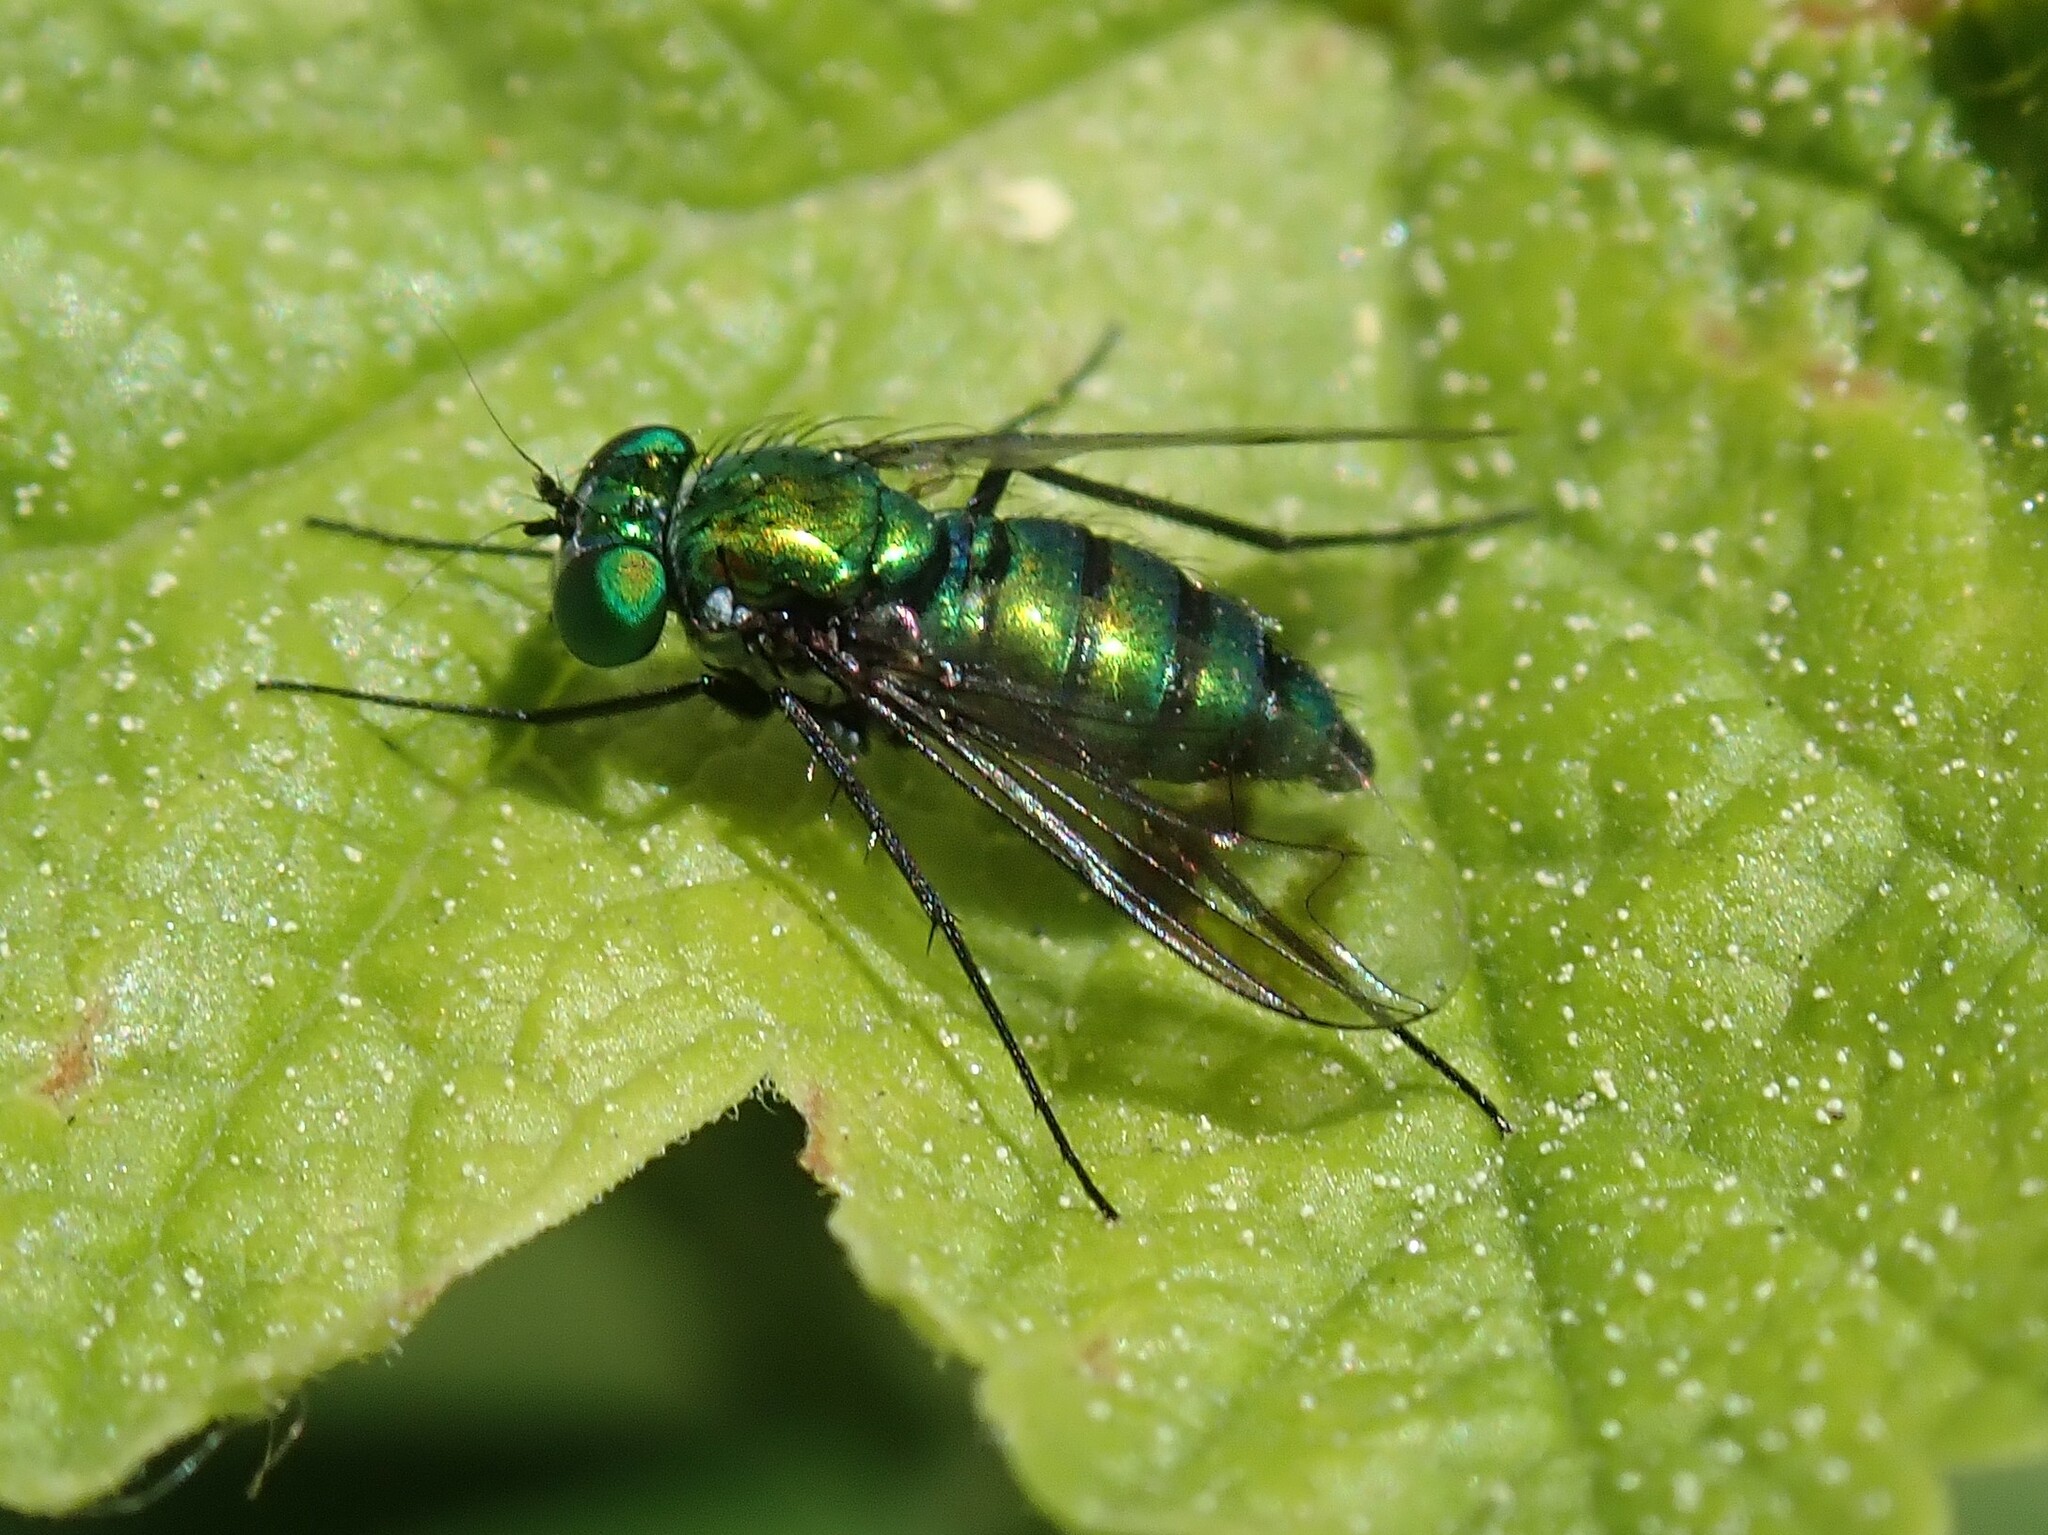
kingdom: Animalia
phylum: Arthropoda
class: Insecta
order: Diptera
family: Dolichopodidae
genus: Condylostylus
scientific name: Condylostylus occidentalis
